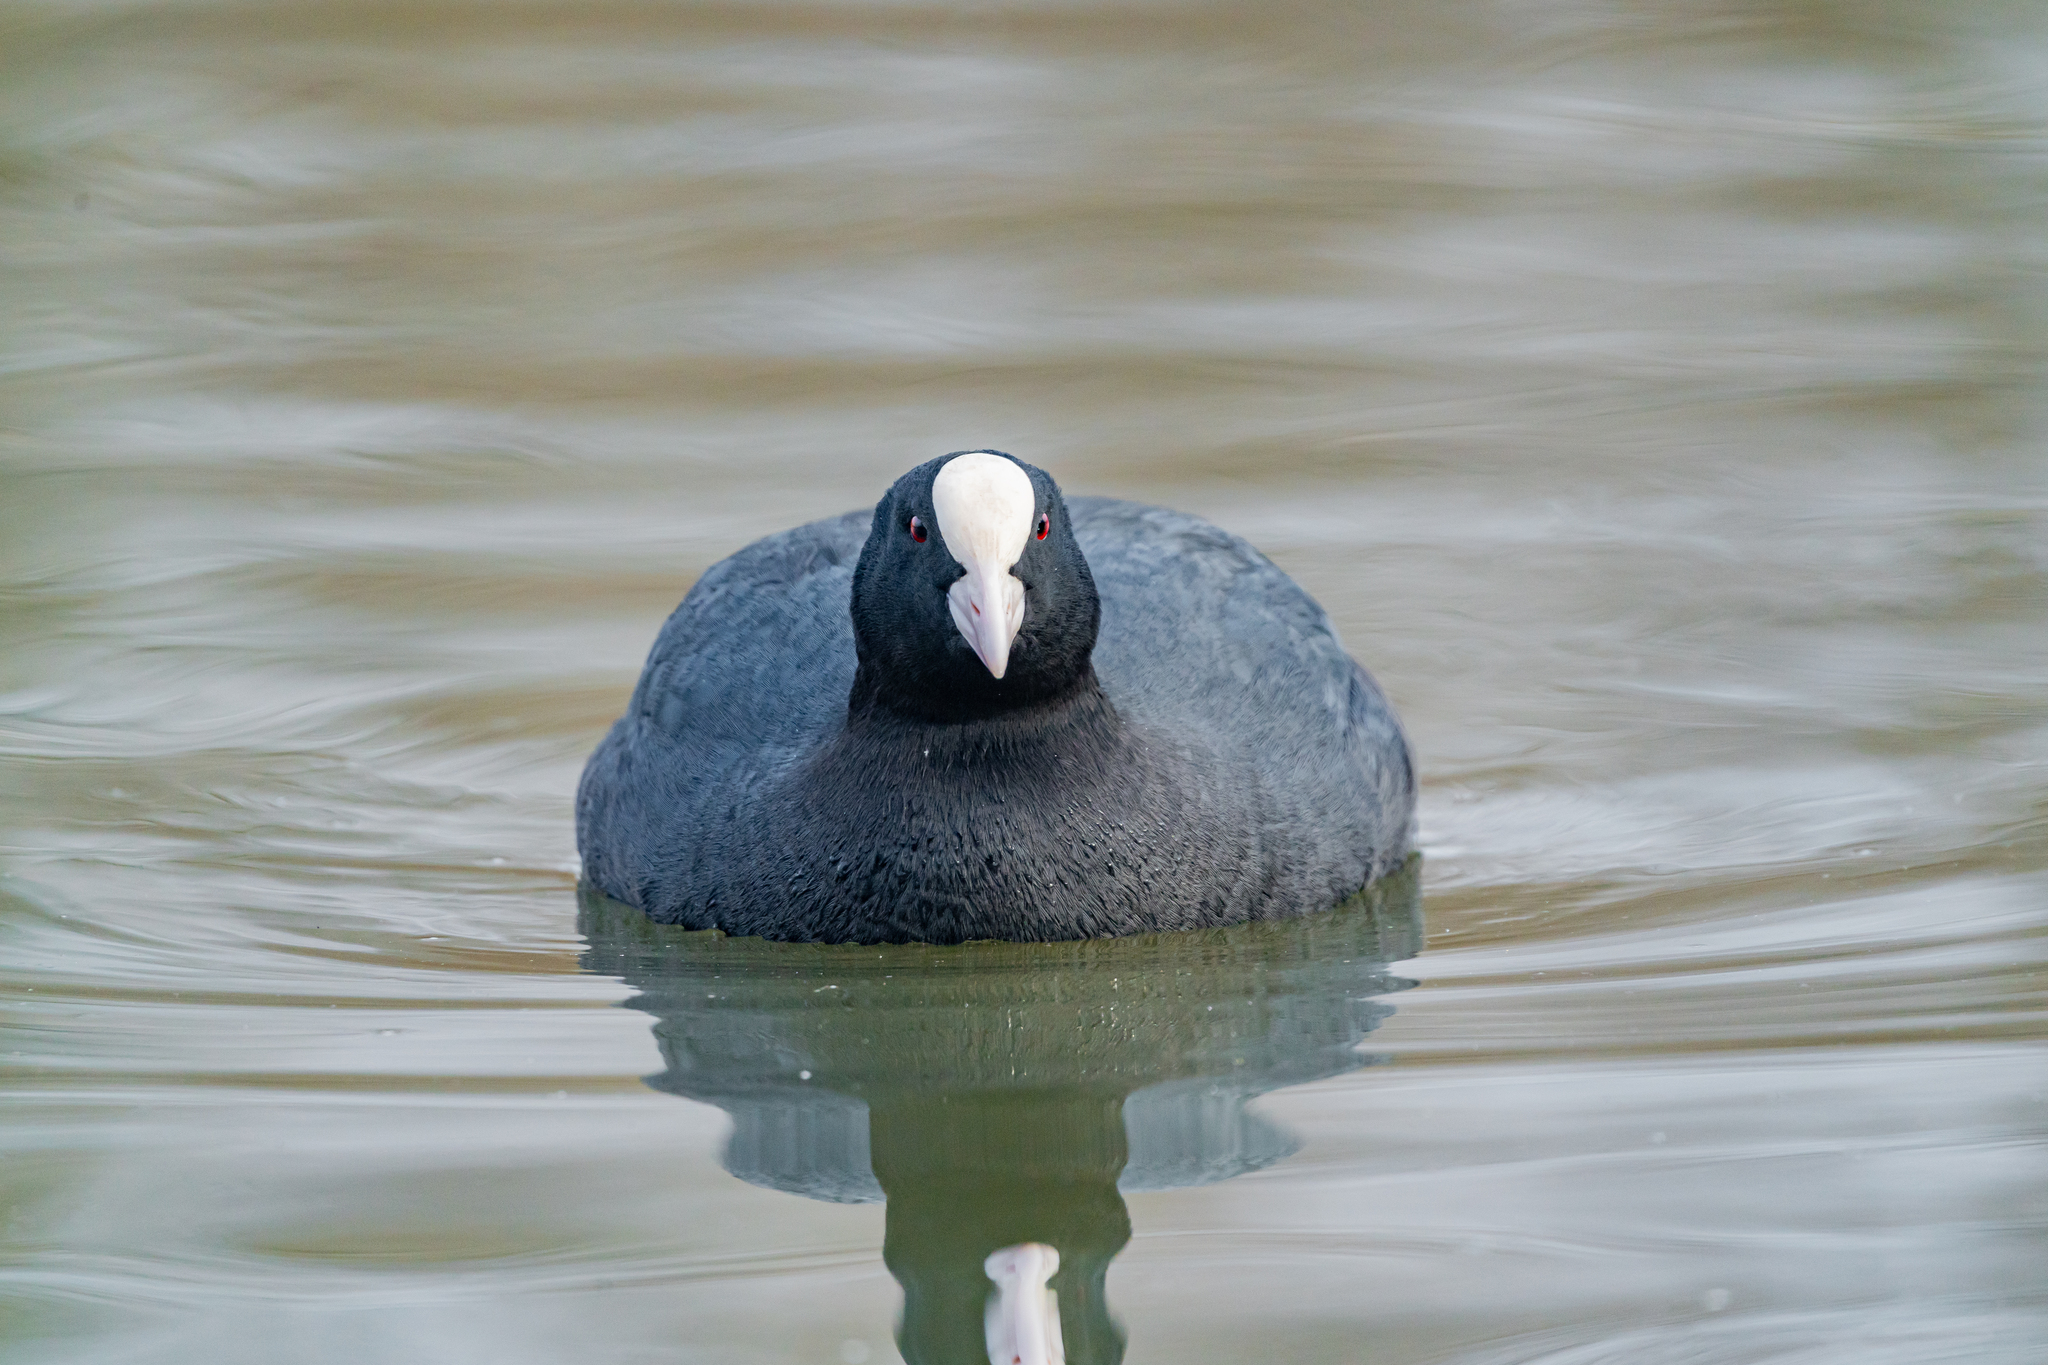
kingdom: Animalia
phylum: Chordata
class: Aves
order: Gruiformes
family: Rallidae
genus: Fulica
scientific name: Fulica atra
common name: Eurasian coot
